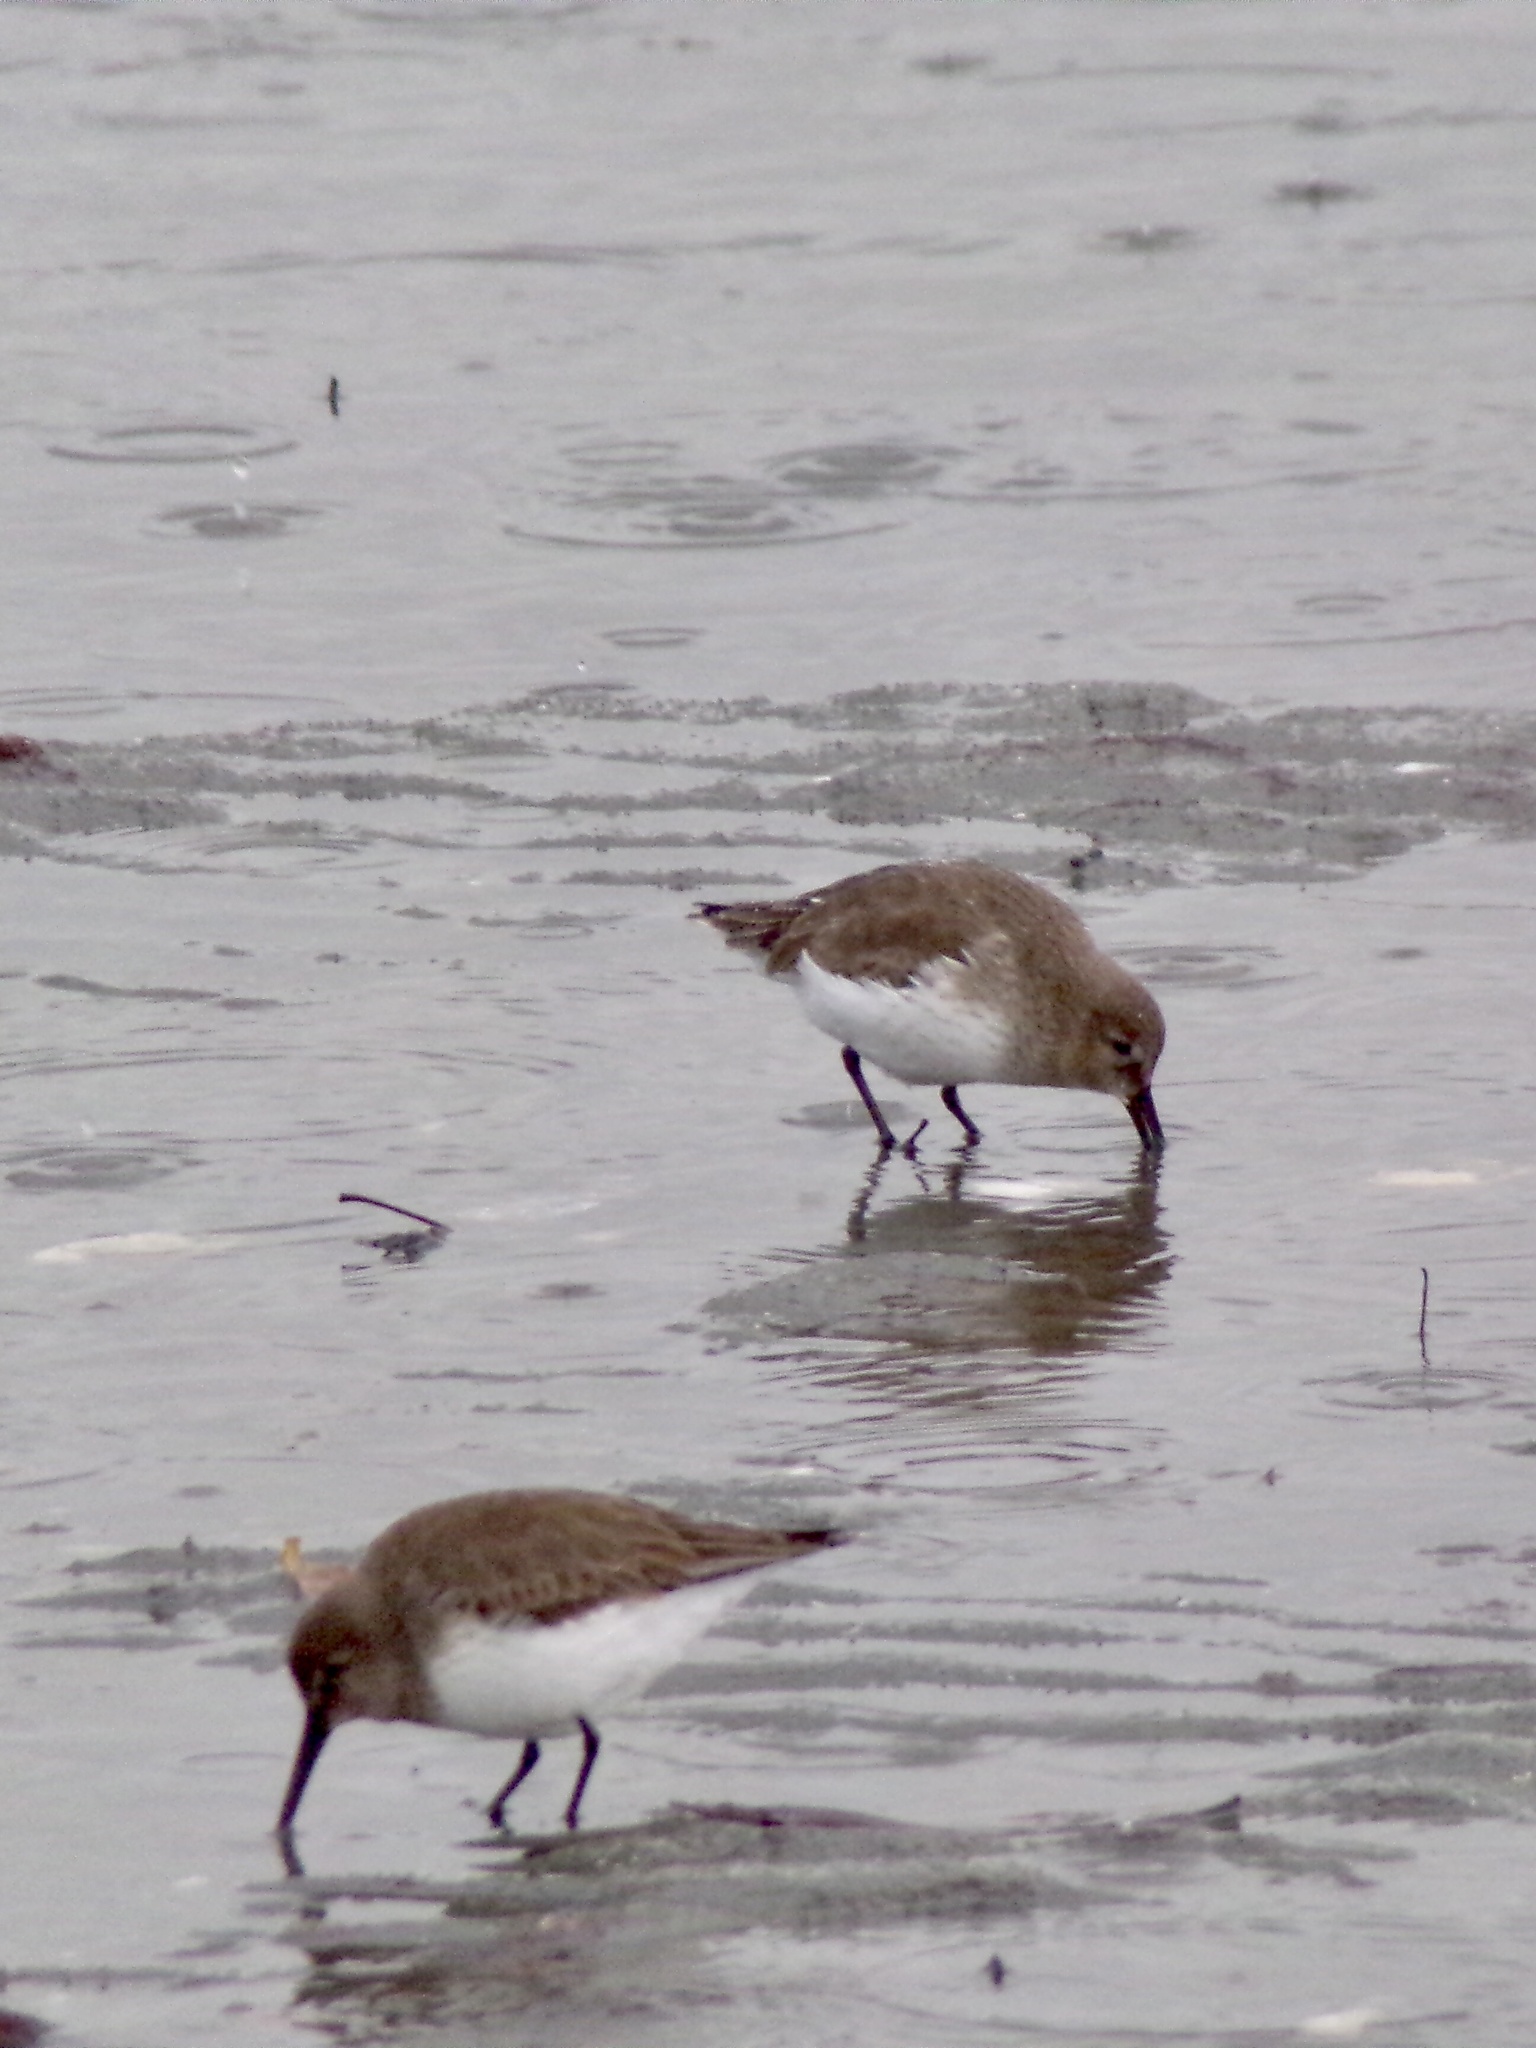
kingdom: Animalia
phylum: Chordata
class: Aves
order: Charadriiformes
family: Scolopacidae
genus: Calidris
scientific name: Calidris alpina
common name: Dunlin
